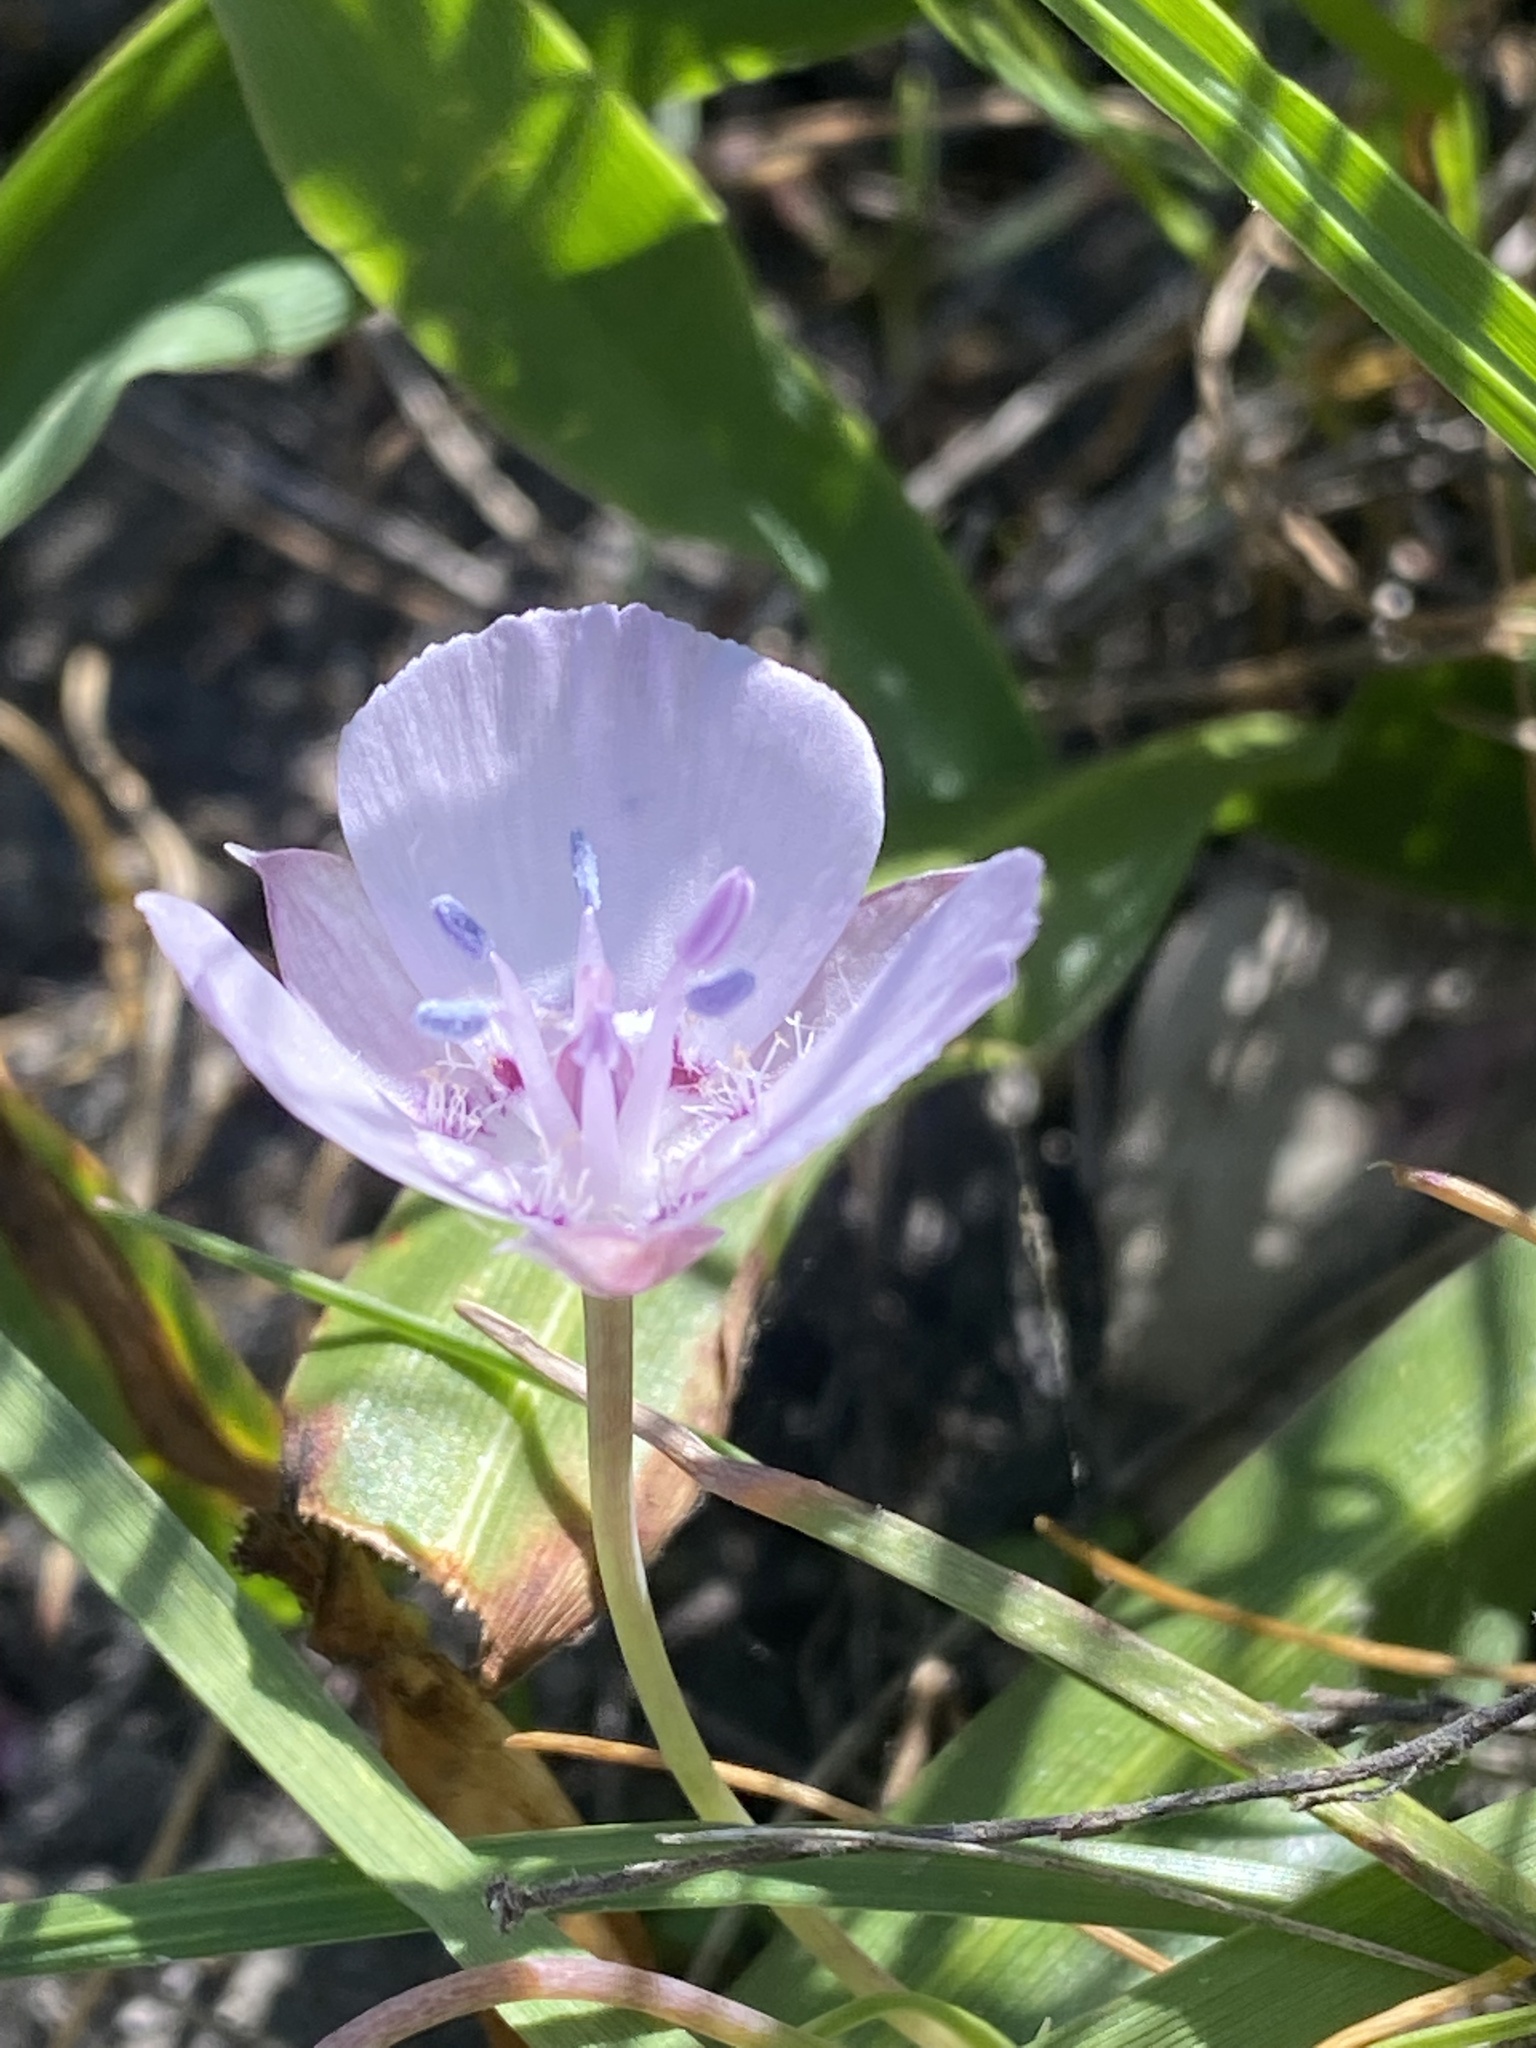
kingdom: Plantae
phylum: Tracheophyta
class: Liliopsida
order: Liliales
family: Liliaceae
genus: Calochortus
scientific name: Calochortus umbellatus
